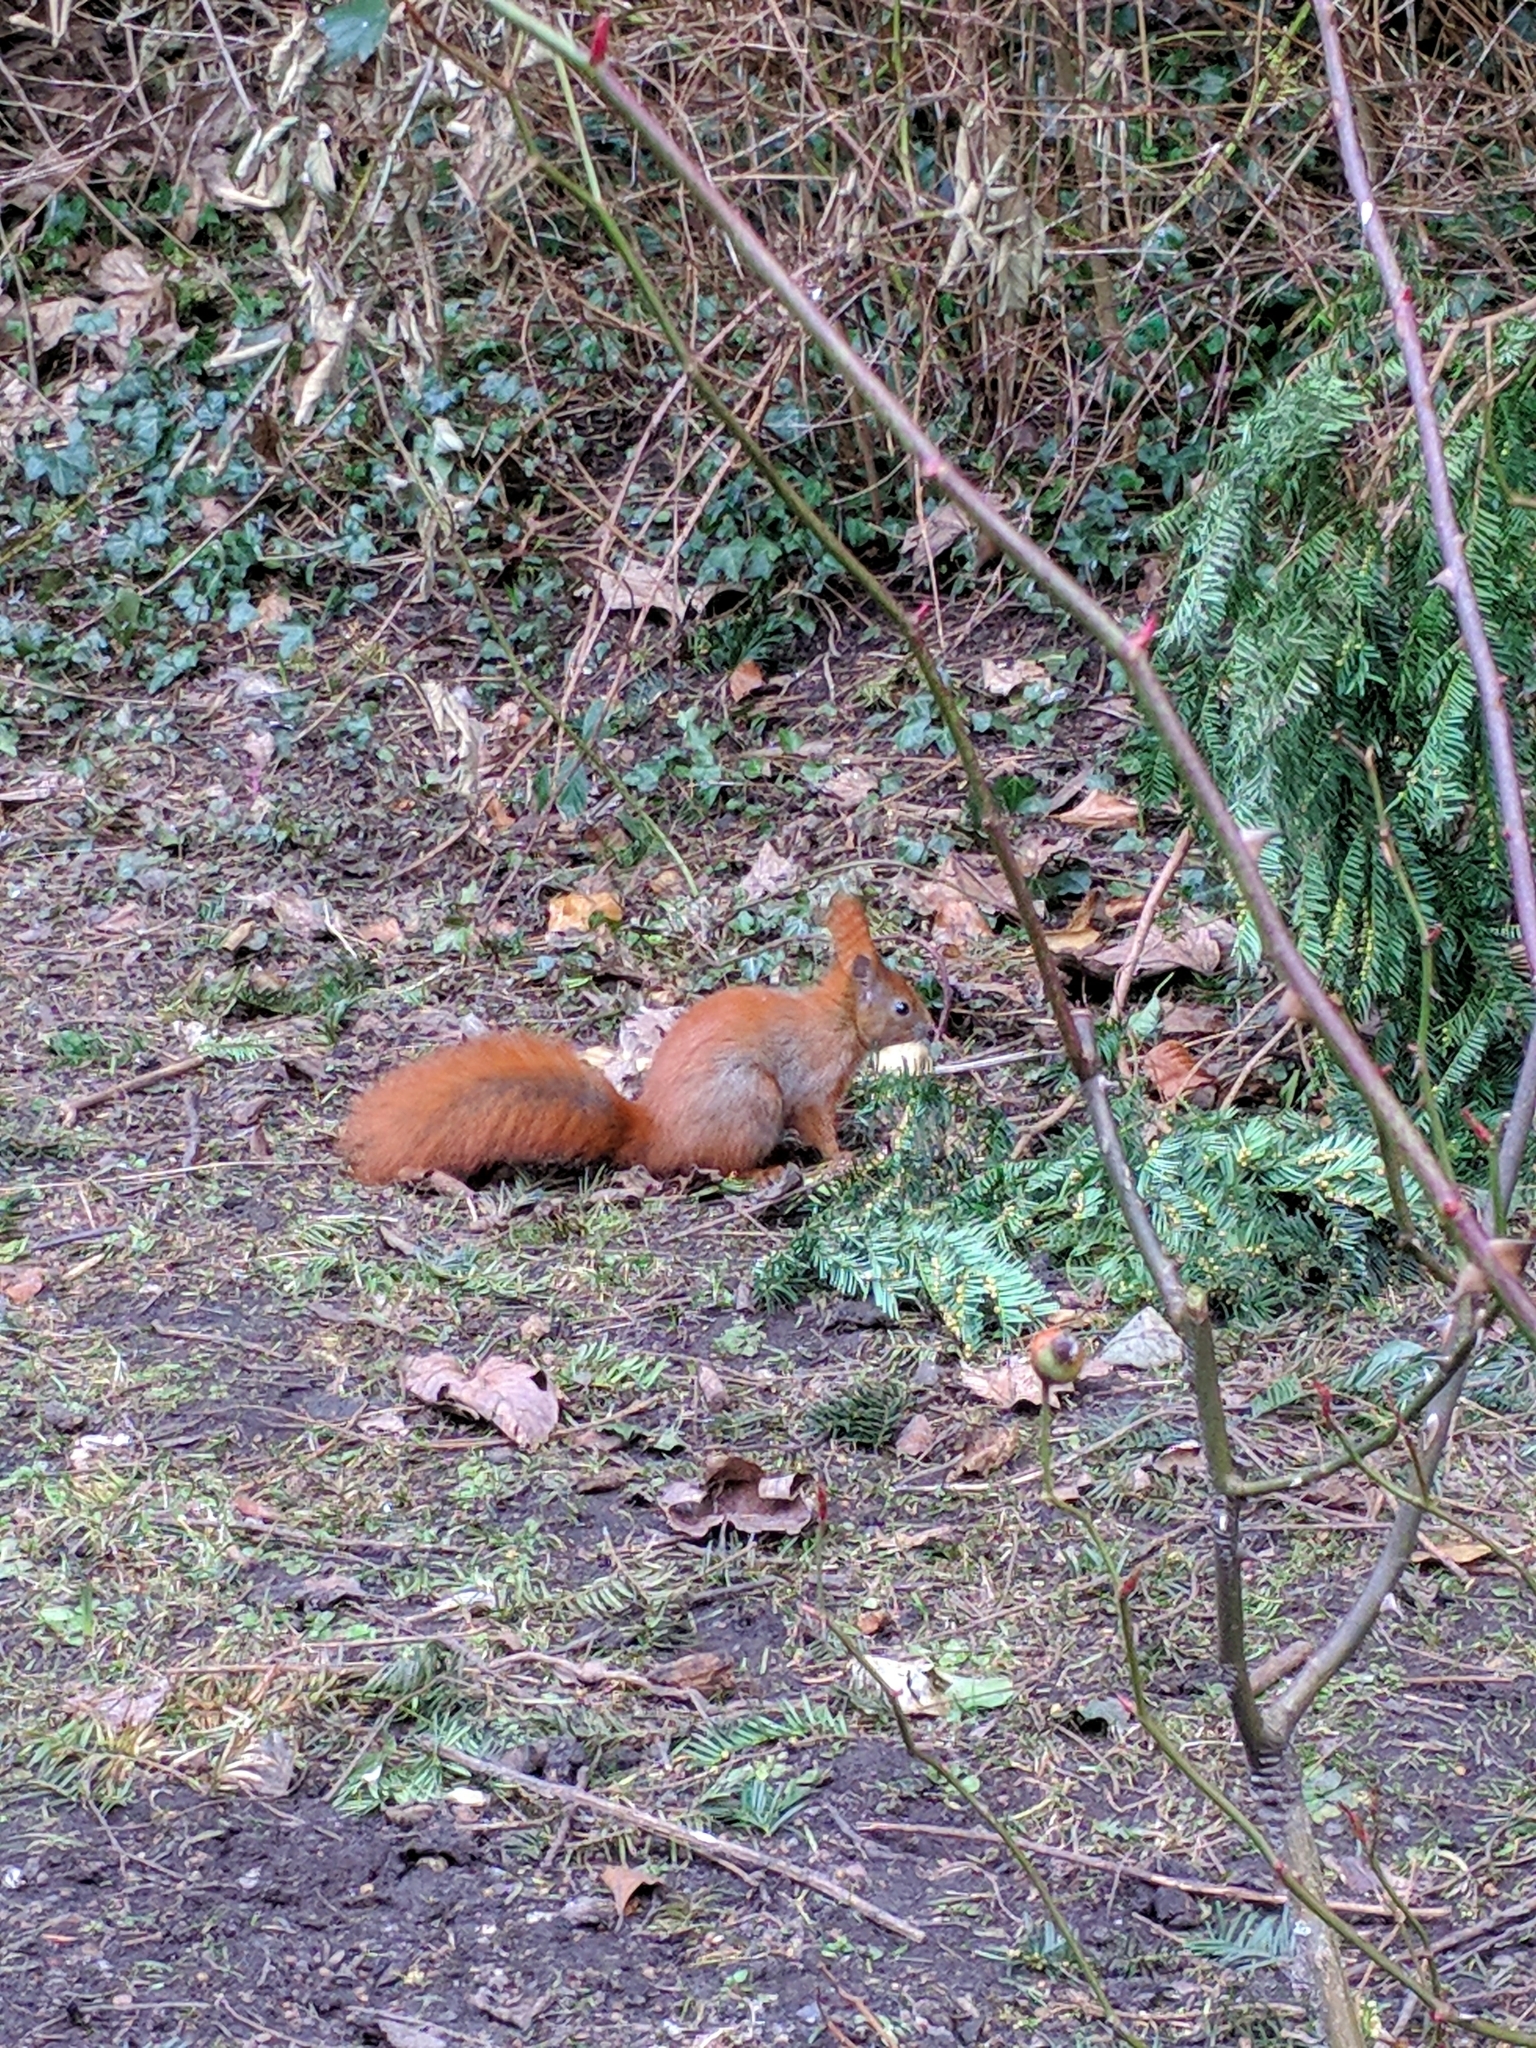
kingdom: Animalia
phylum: Chordata
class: Mammalia
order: Rodentia
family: Sciuridae
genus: Sciurus
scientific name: Sciurus vulgaris
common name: Eurasian red squirrel
